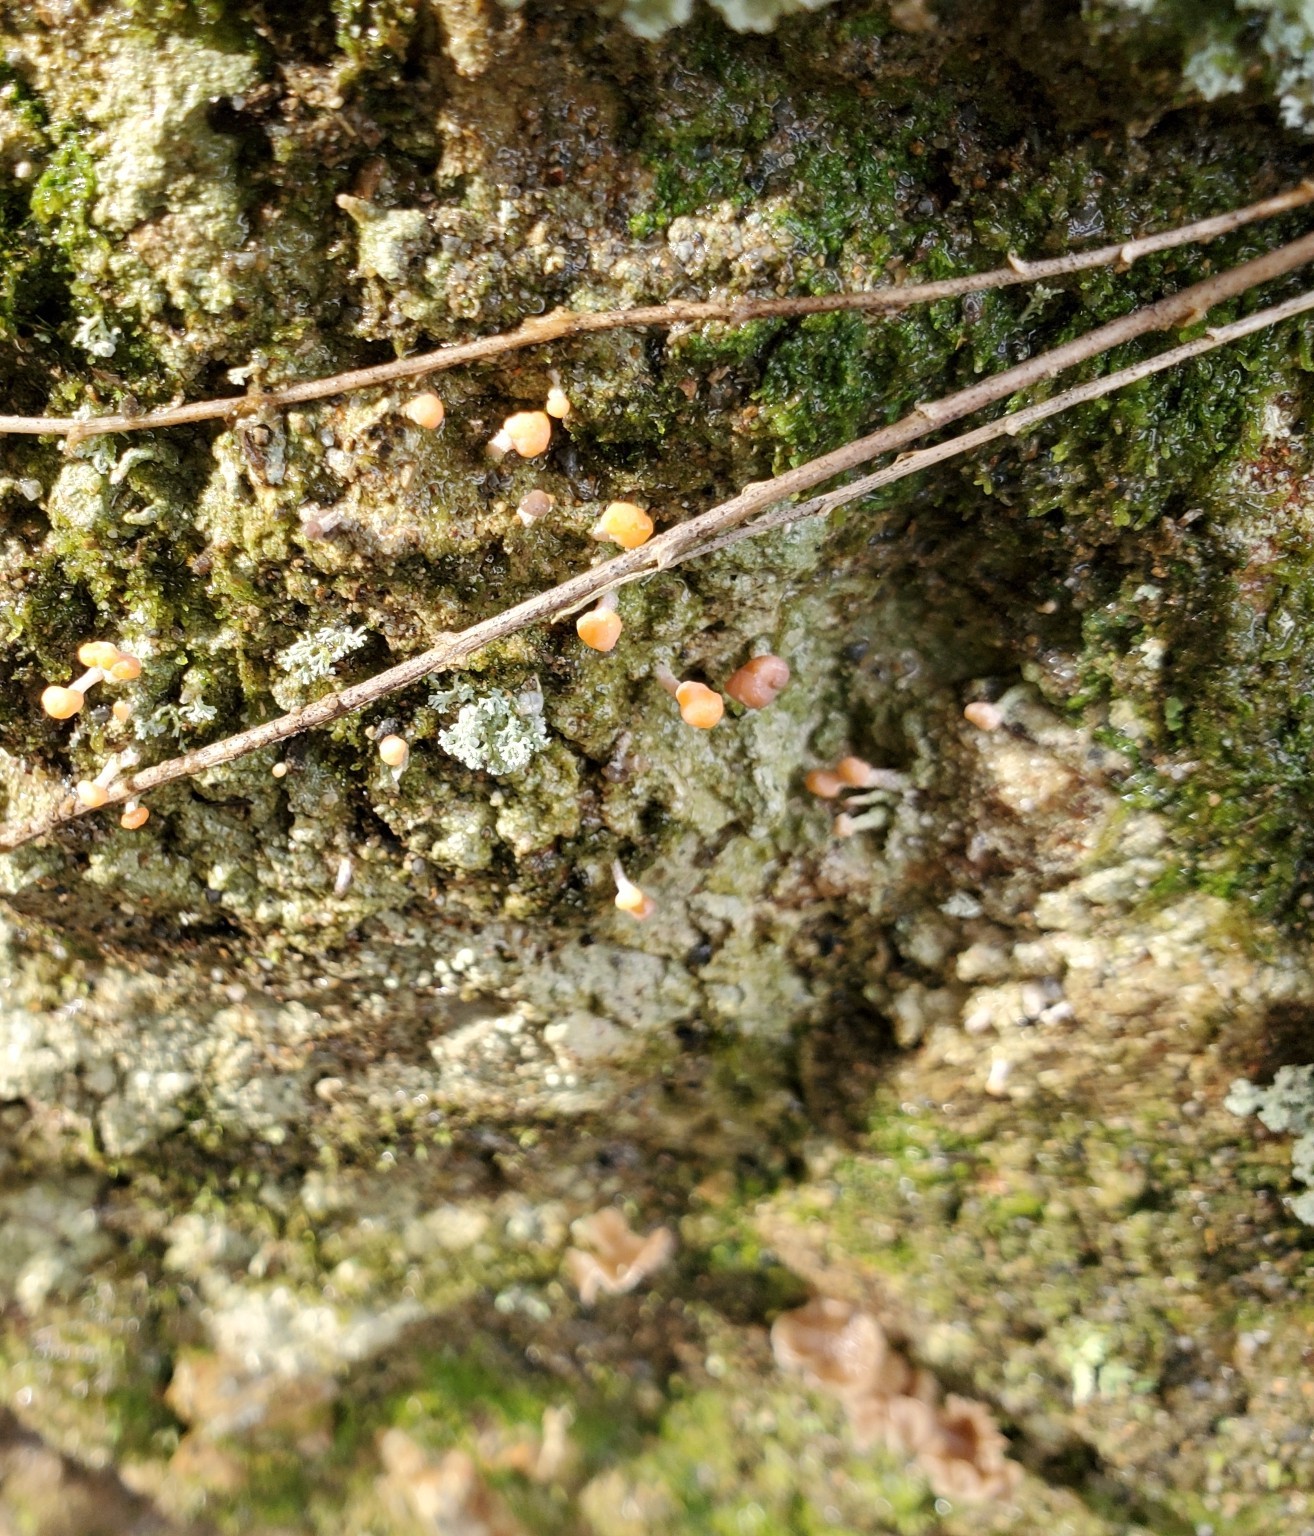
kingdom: Fungi
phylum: Ascomycota
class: Lecanoromycetes
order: Pertusariales
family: Icmadophilaceae
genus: Dibaeis
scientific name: Dibaeis arcuata
